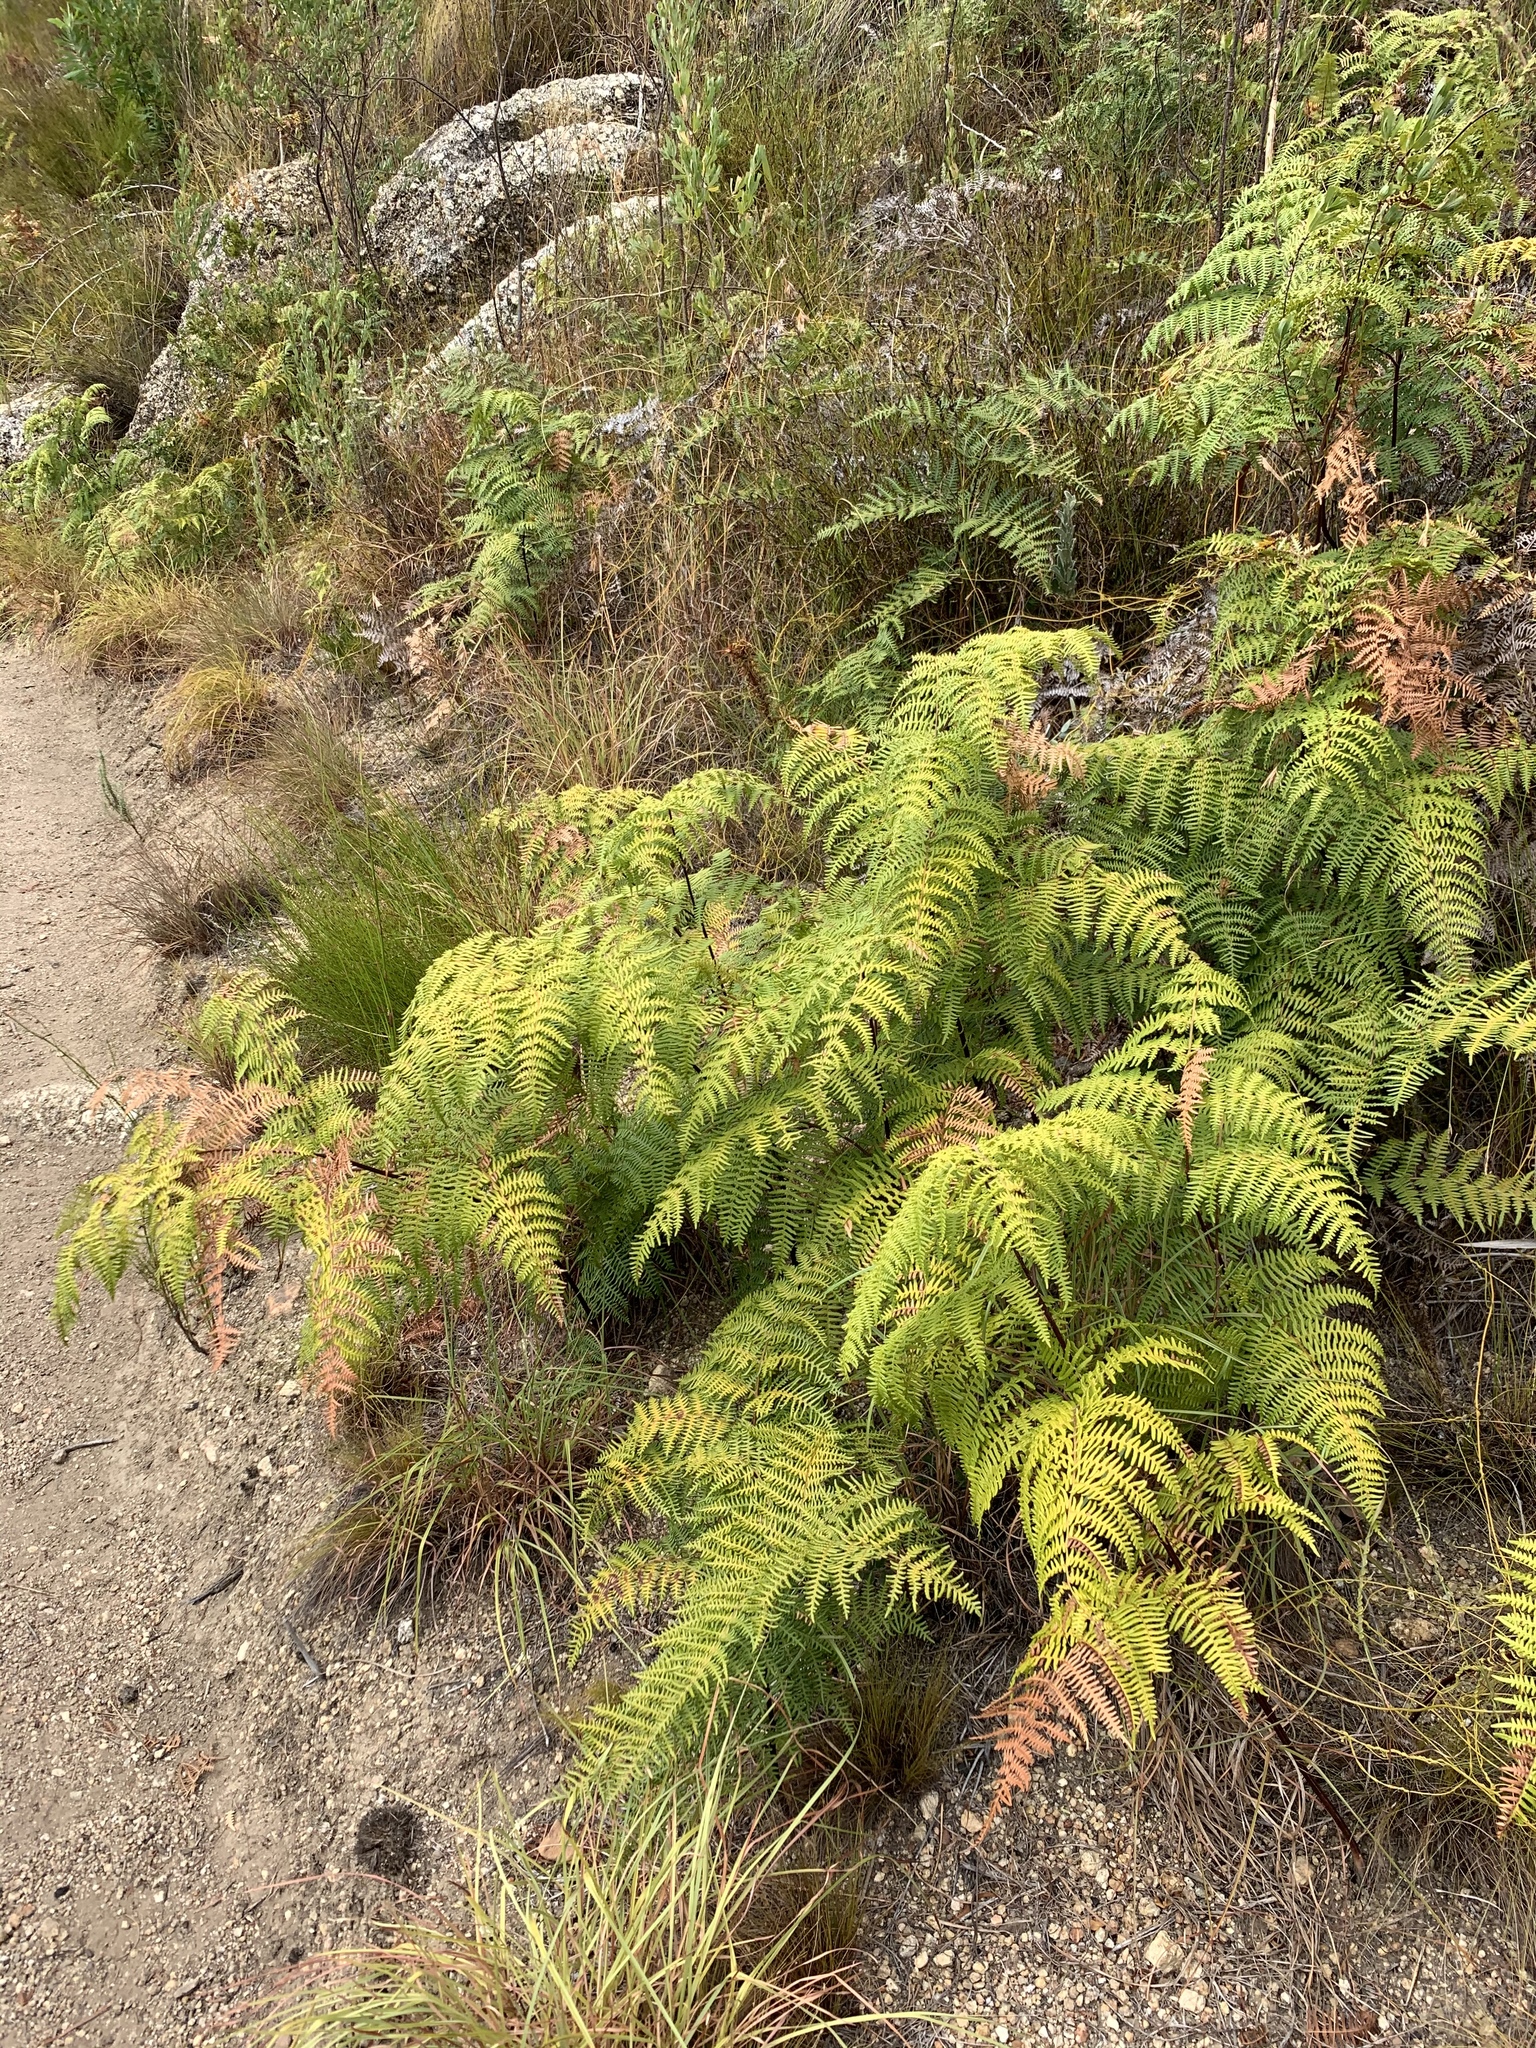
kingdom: Plantae
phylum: Tracheophyta
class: Polypodiopsida
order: Polypodiales
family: Dennstaedtiaceae
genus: Pteridium
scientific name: Pteridium aquilinum
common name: Bracken
